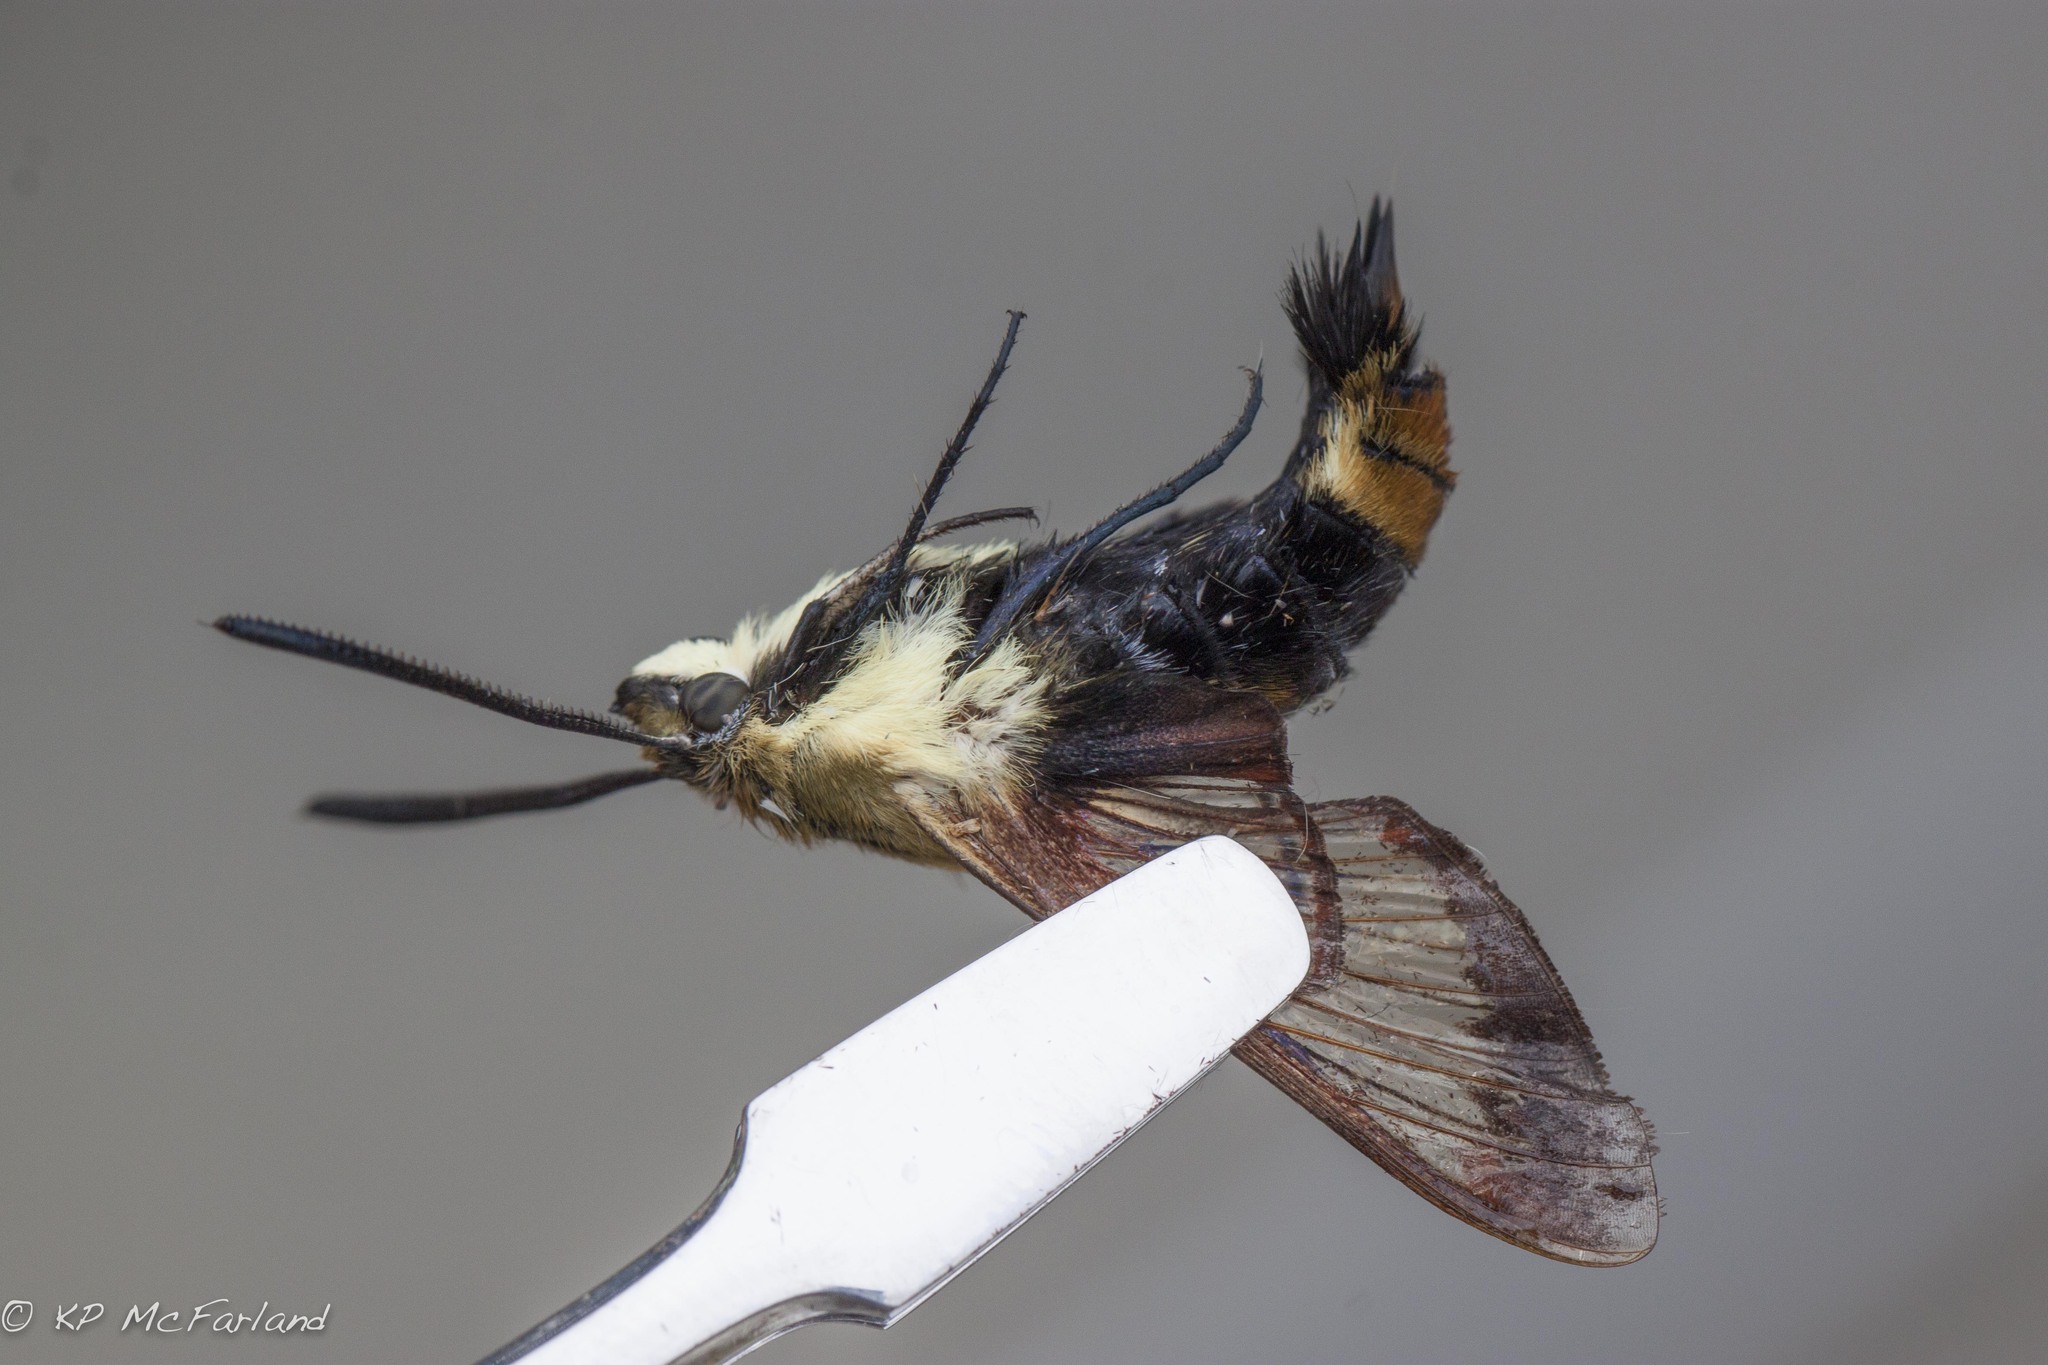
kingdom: Animalia
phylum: Arthropoda
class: Insecta
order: Lepidoptera
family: Sphingidae
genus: Hemaris
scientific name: Hemaris diffinis
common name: Bumblebee moth
